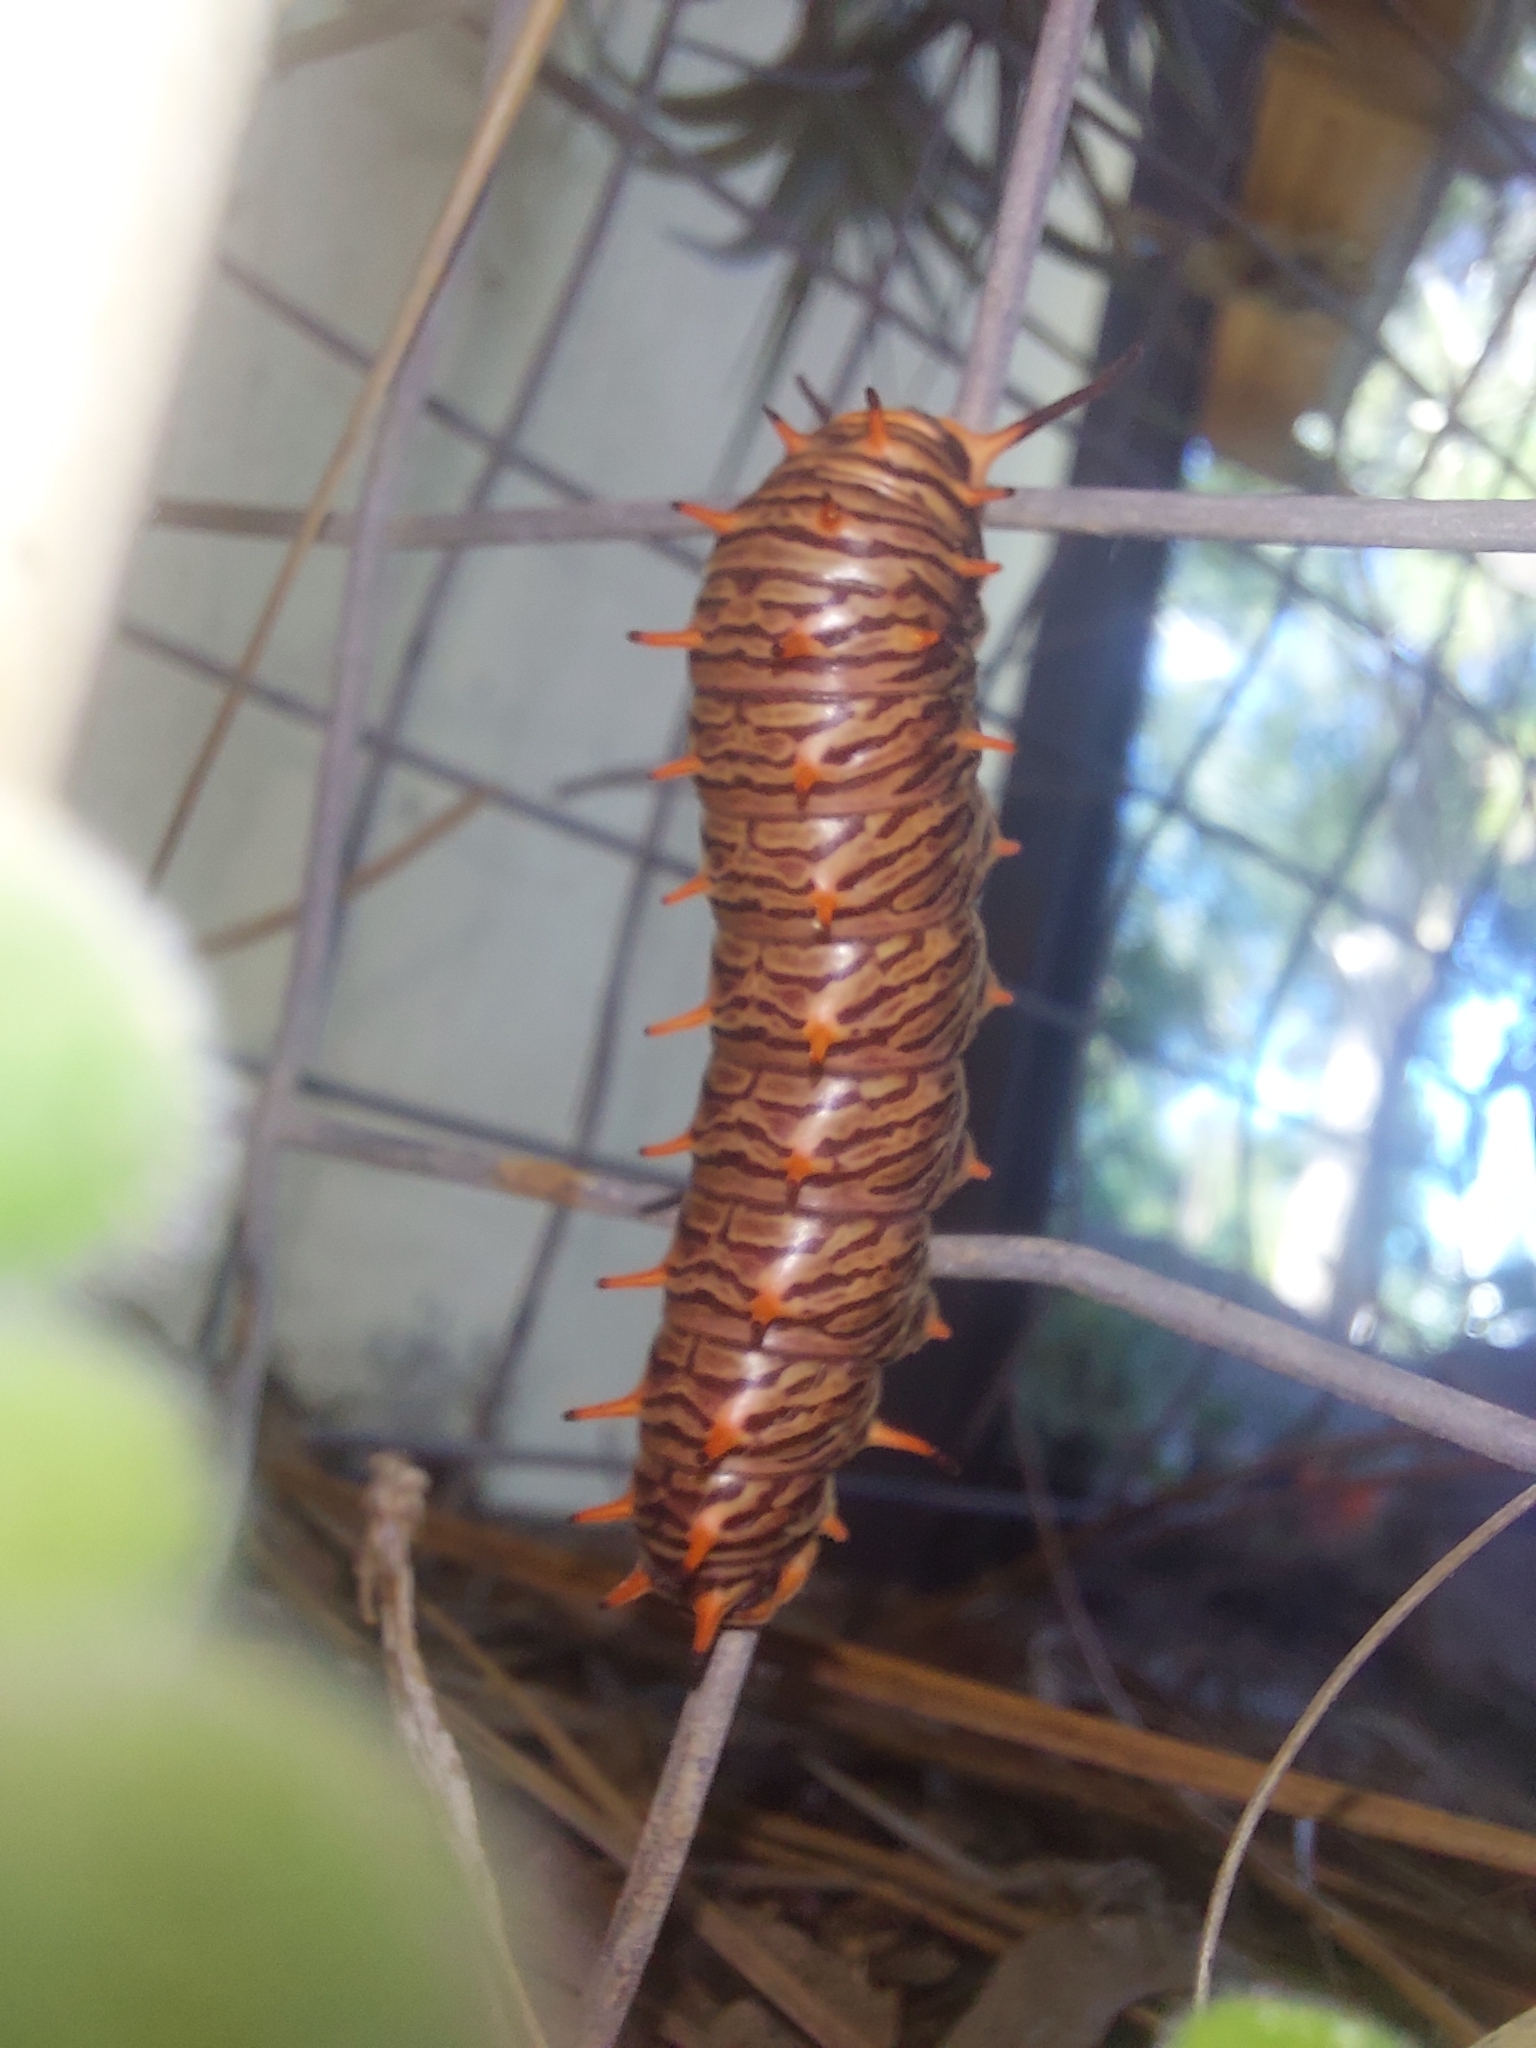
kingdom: Animalia
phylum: Arthropoda
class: Insecta
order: Lepidoptera
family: Papilionidae
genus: Battus
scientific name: Battus polydamas
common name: Polydamas swallowtail
